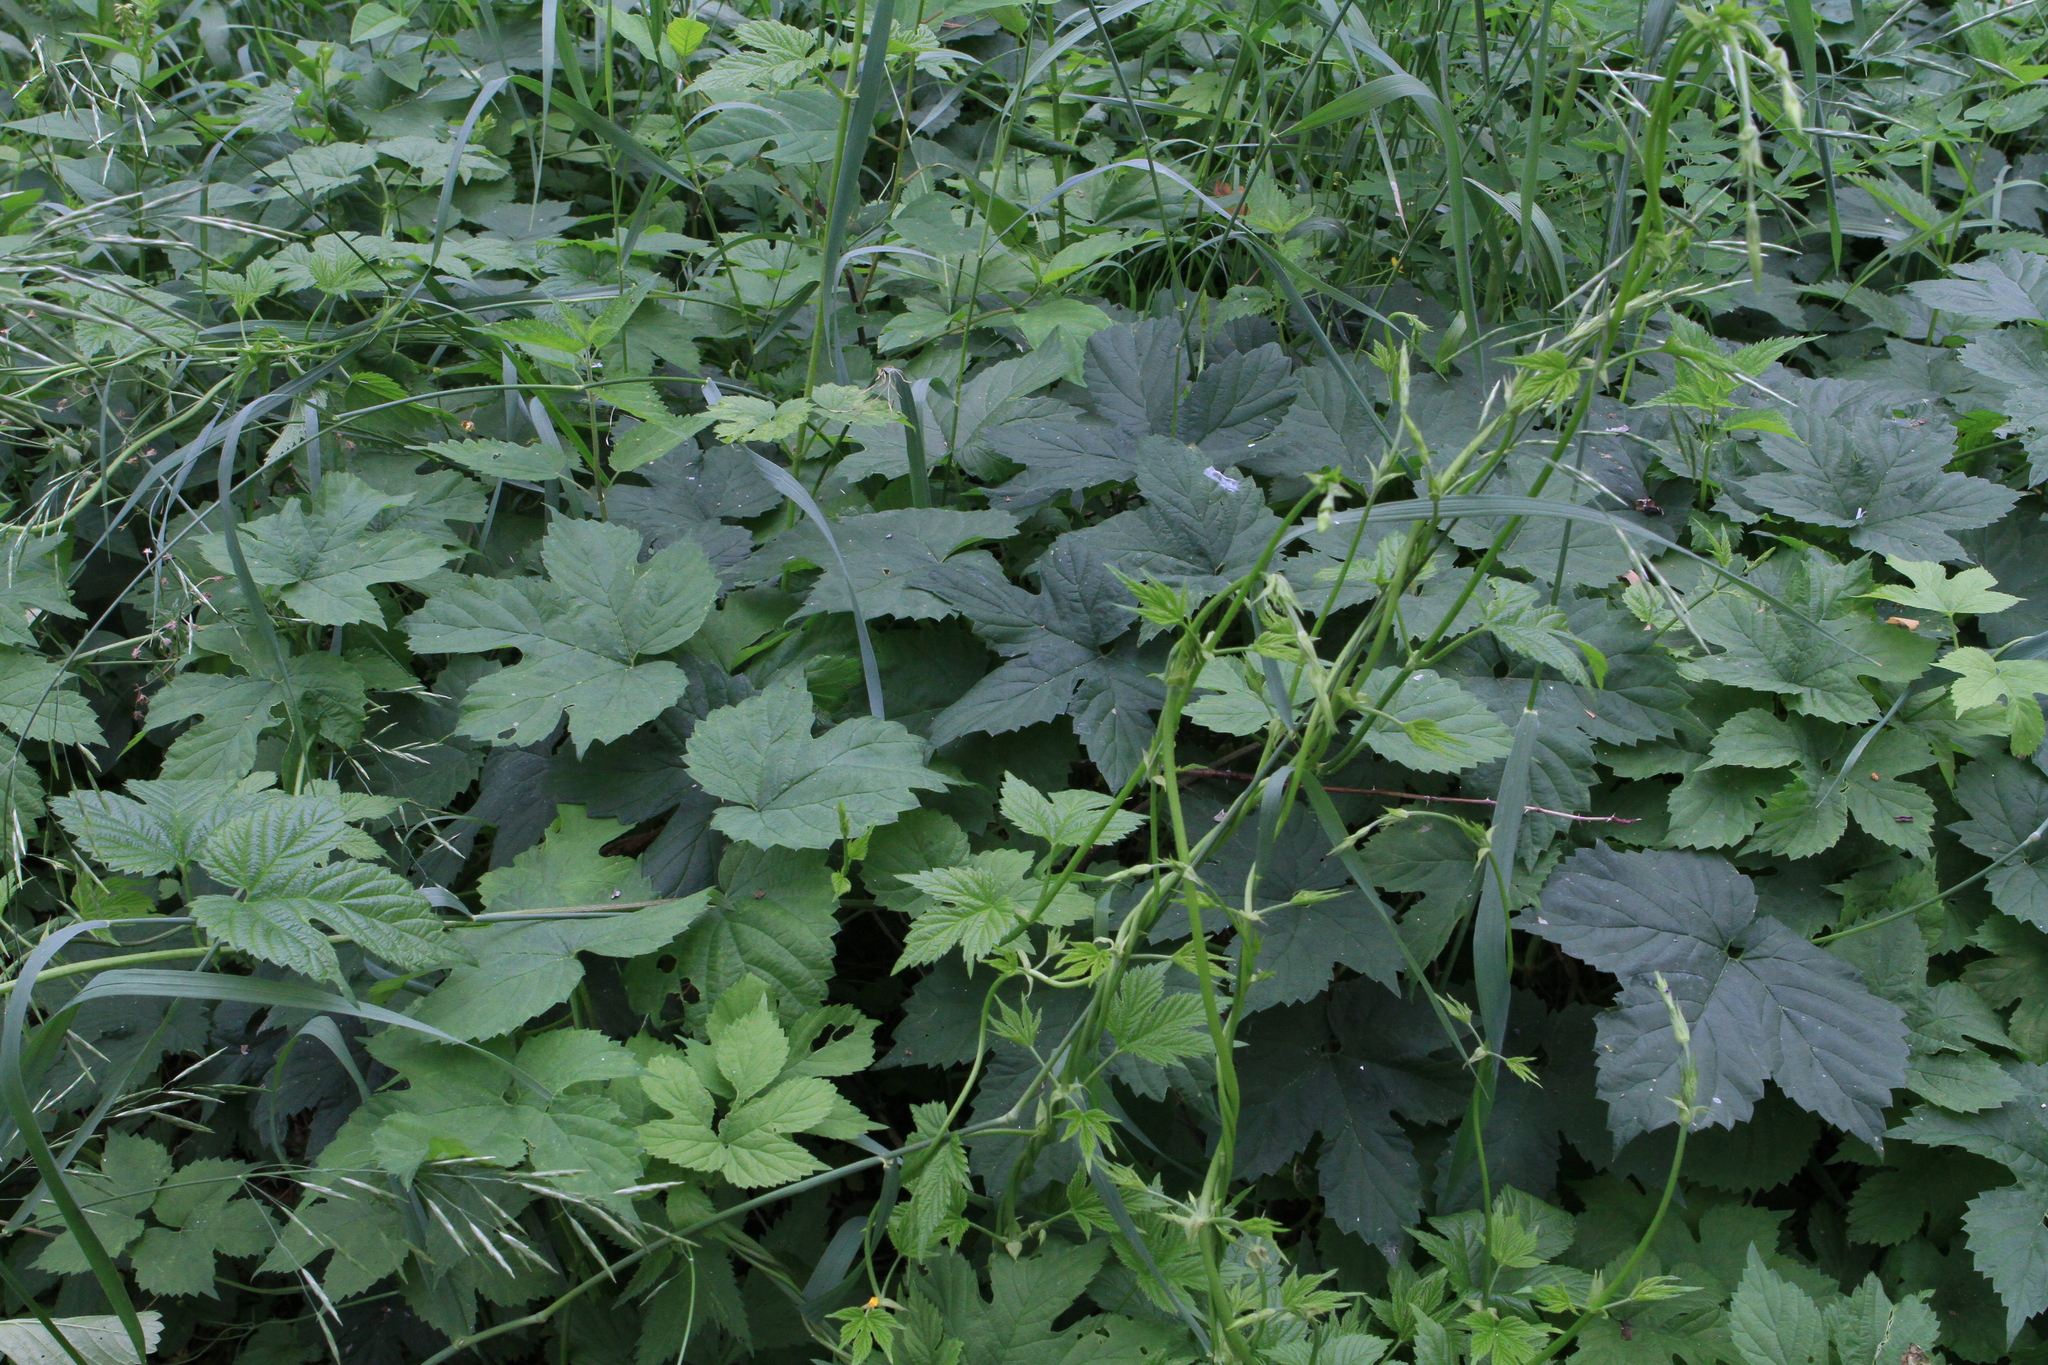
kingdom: Plantae
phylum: Tracheophyta
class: Magnoliopsida
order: Rosales
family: Cannabaceae
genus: Humulus
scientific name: Humulus lupulus
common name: Hop
